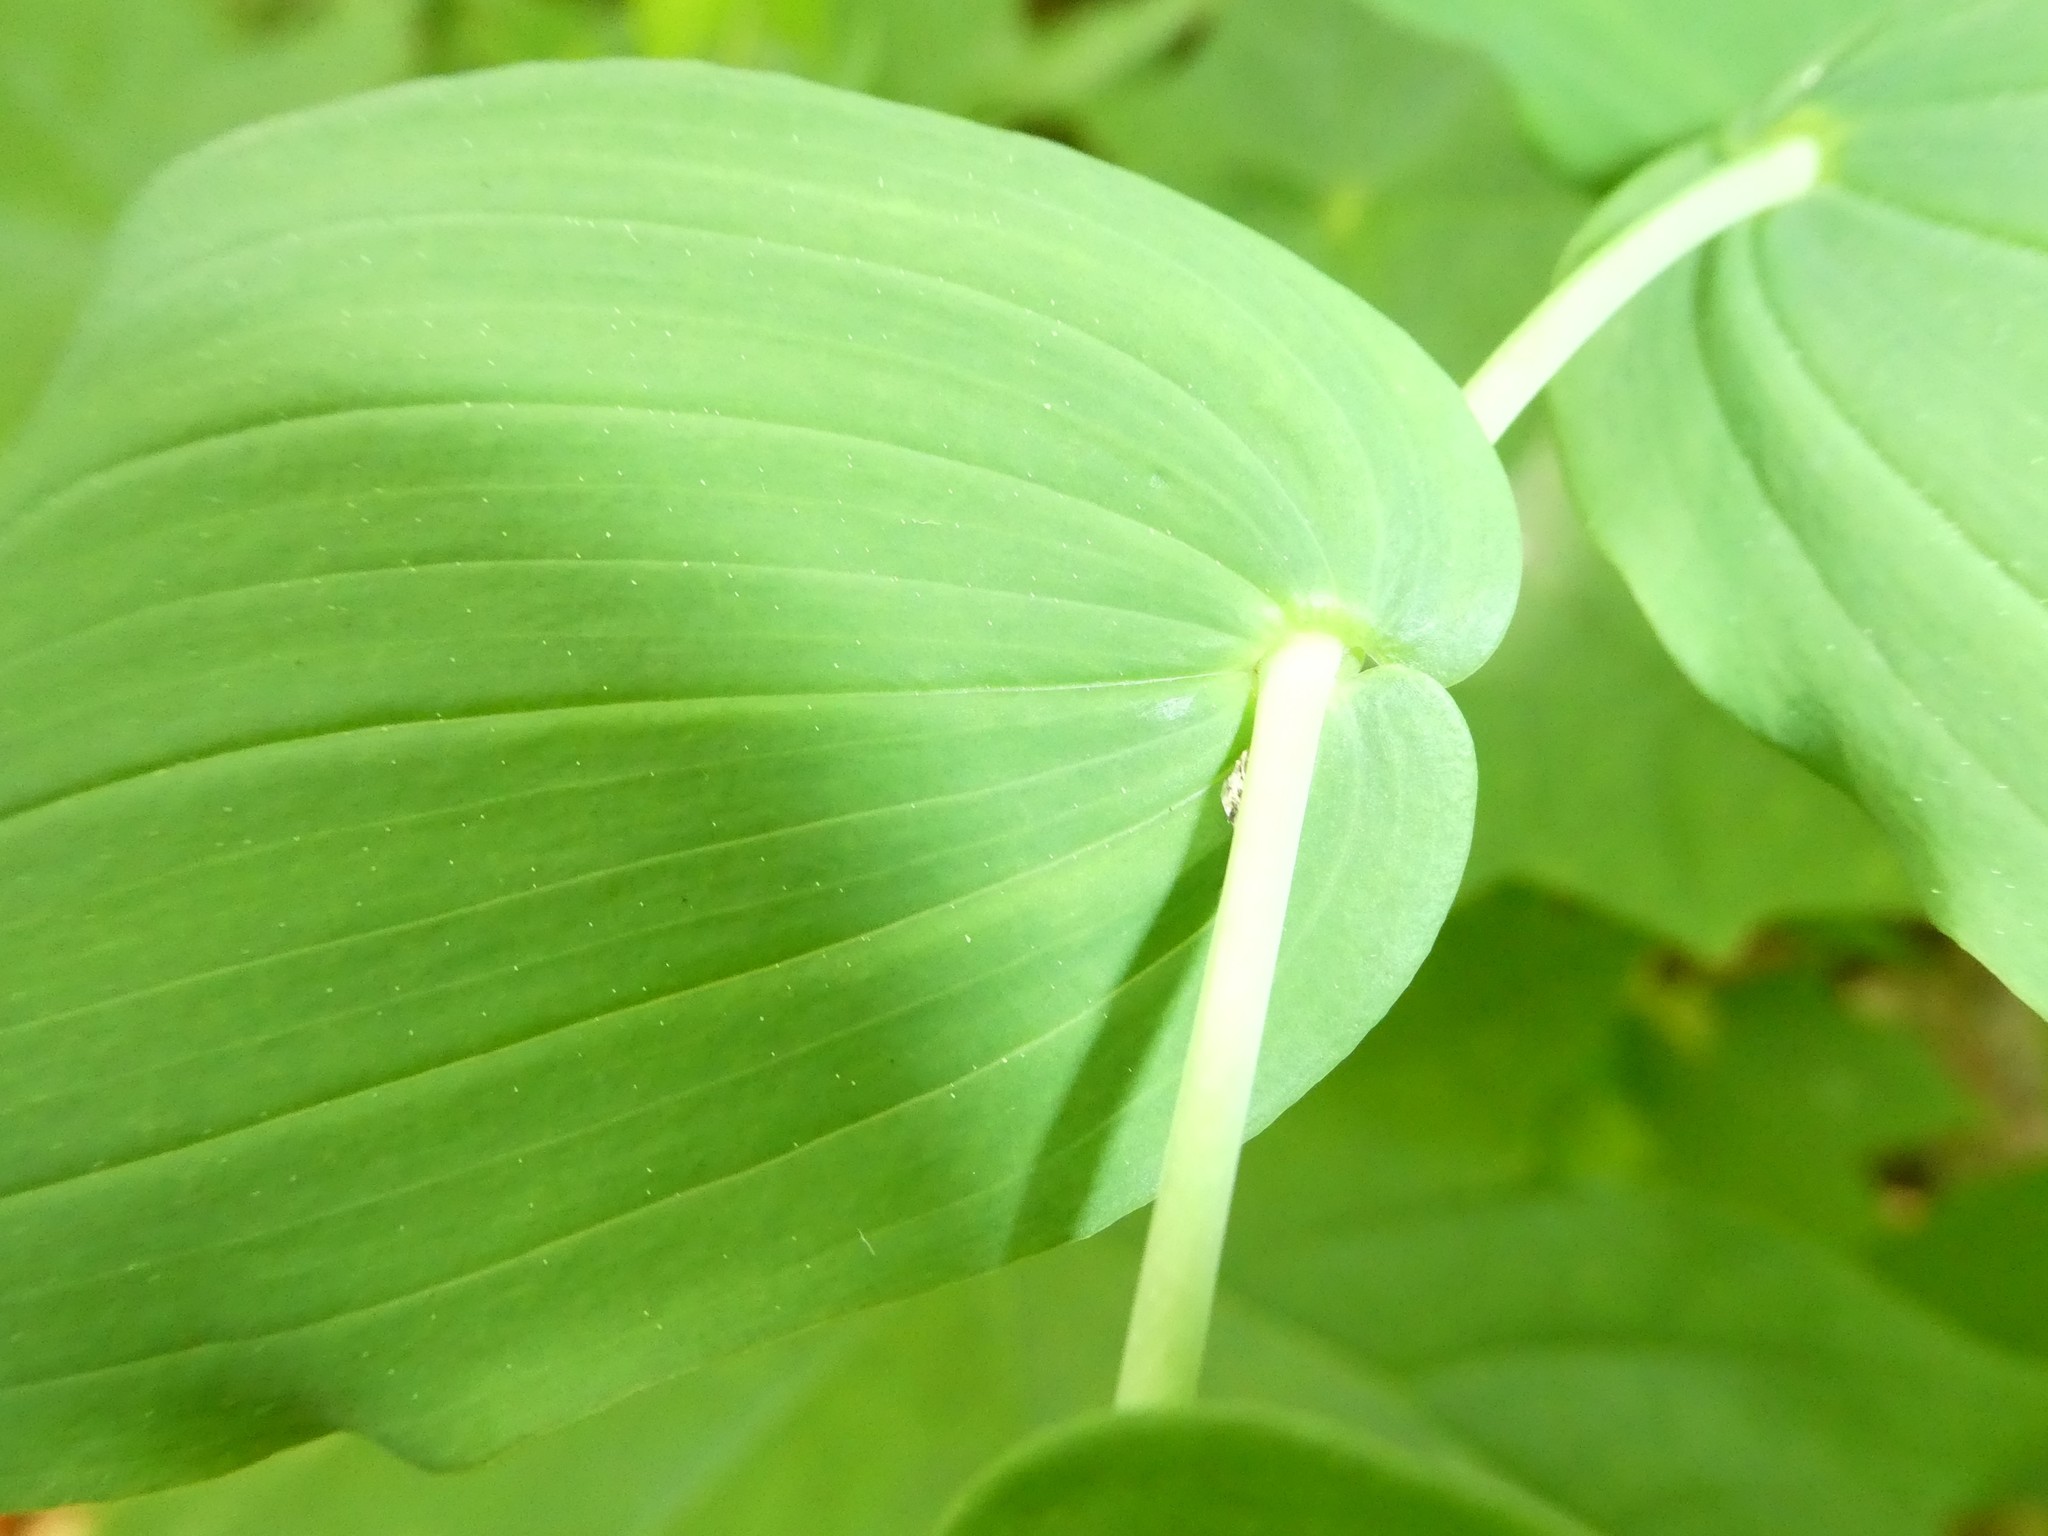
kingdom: Plantae
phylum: Tracheophyta
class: Liliopsida
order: Liliales
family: Liliaceae
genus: Streptopus
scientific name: Streptopus amplexifolius
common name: Clasp twisted stalk
